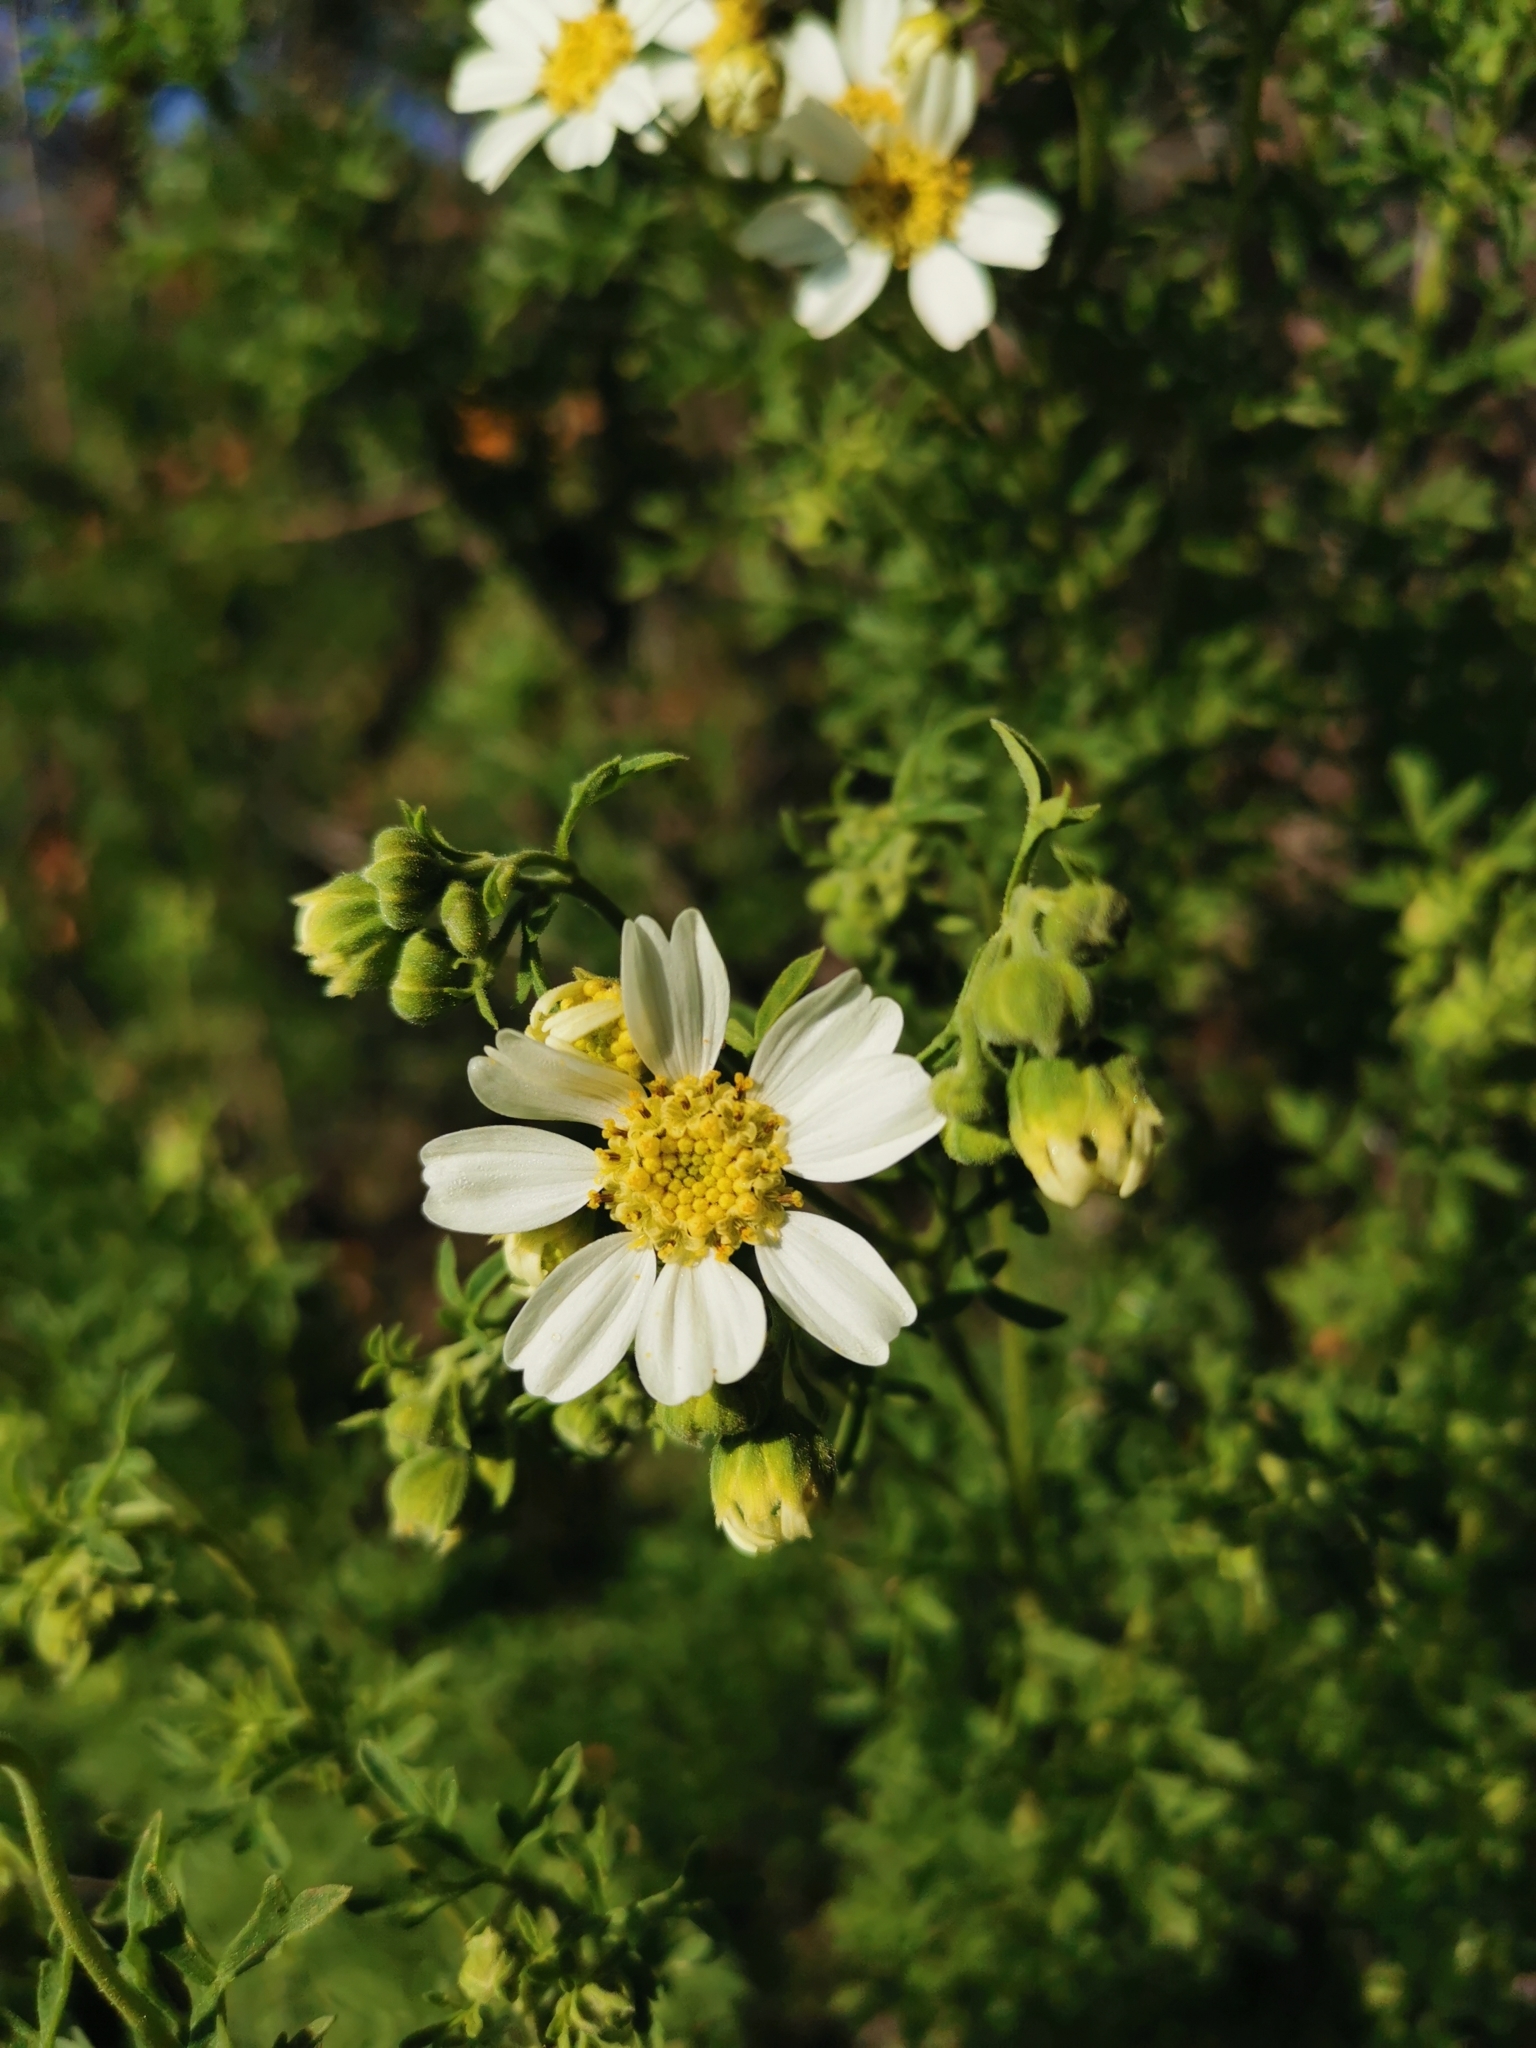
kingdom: Plantae
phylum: Tracheophyta
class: Magnoliopsida
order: Asterales
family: Asteraceae
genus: Bahia
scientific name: Bahia ambrosioides
